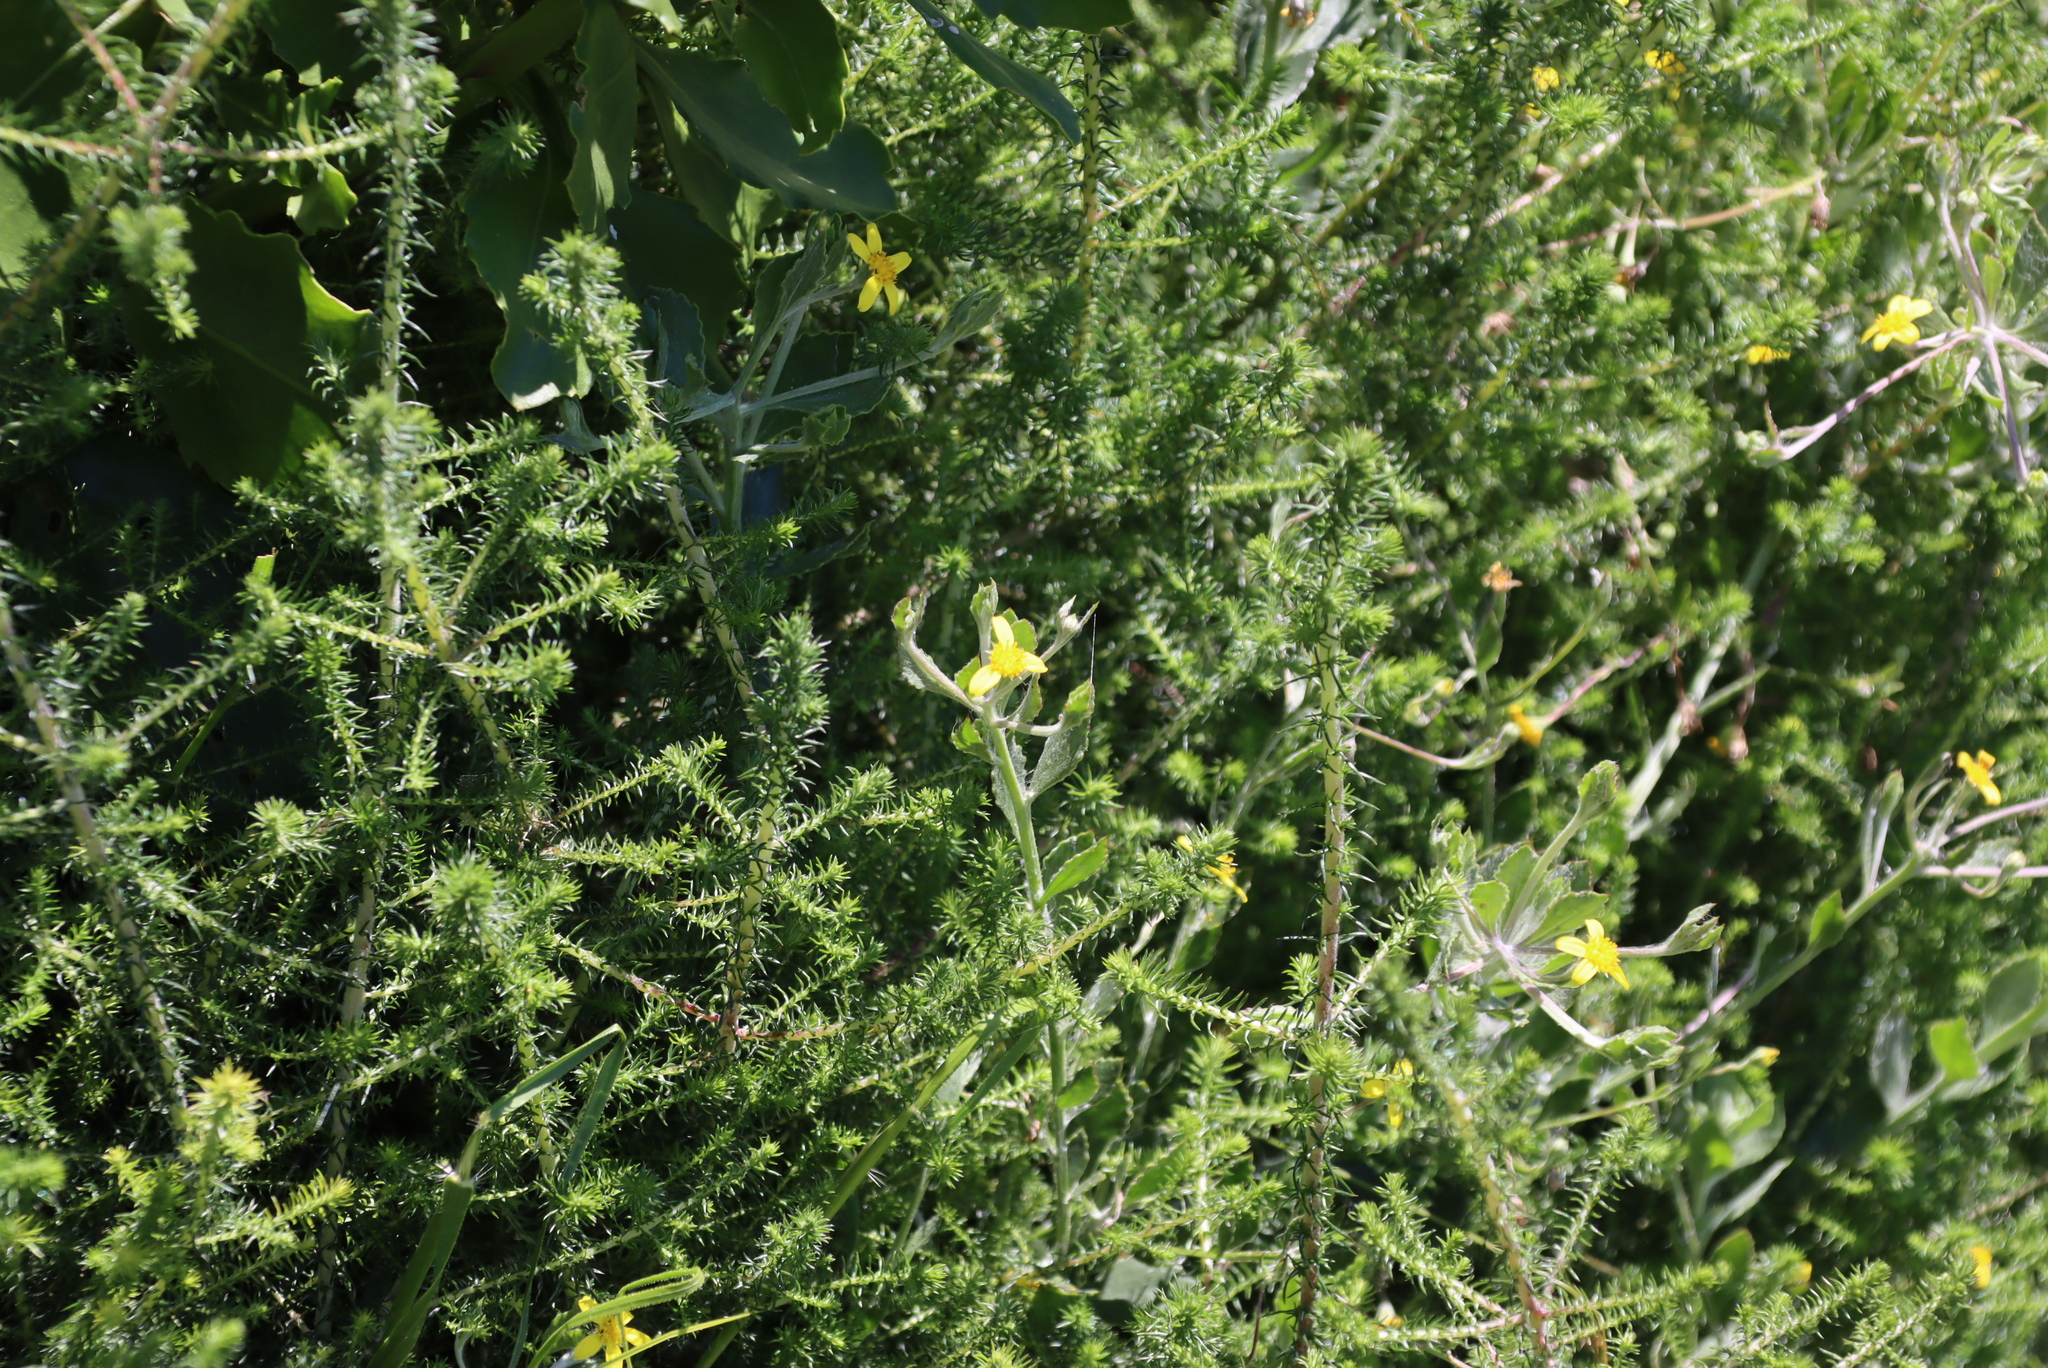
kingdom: Plantae
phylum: Tracheophyta
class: Magnoliopsida
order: Asterales
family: Asteraceae
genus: Osteospermum
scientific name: Osteospermum ciliatum
